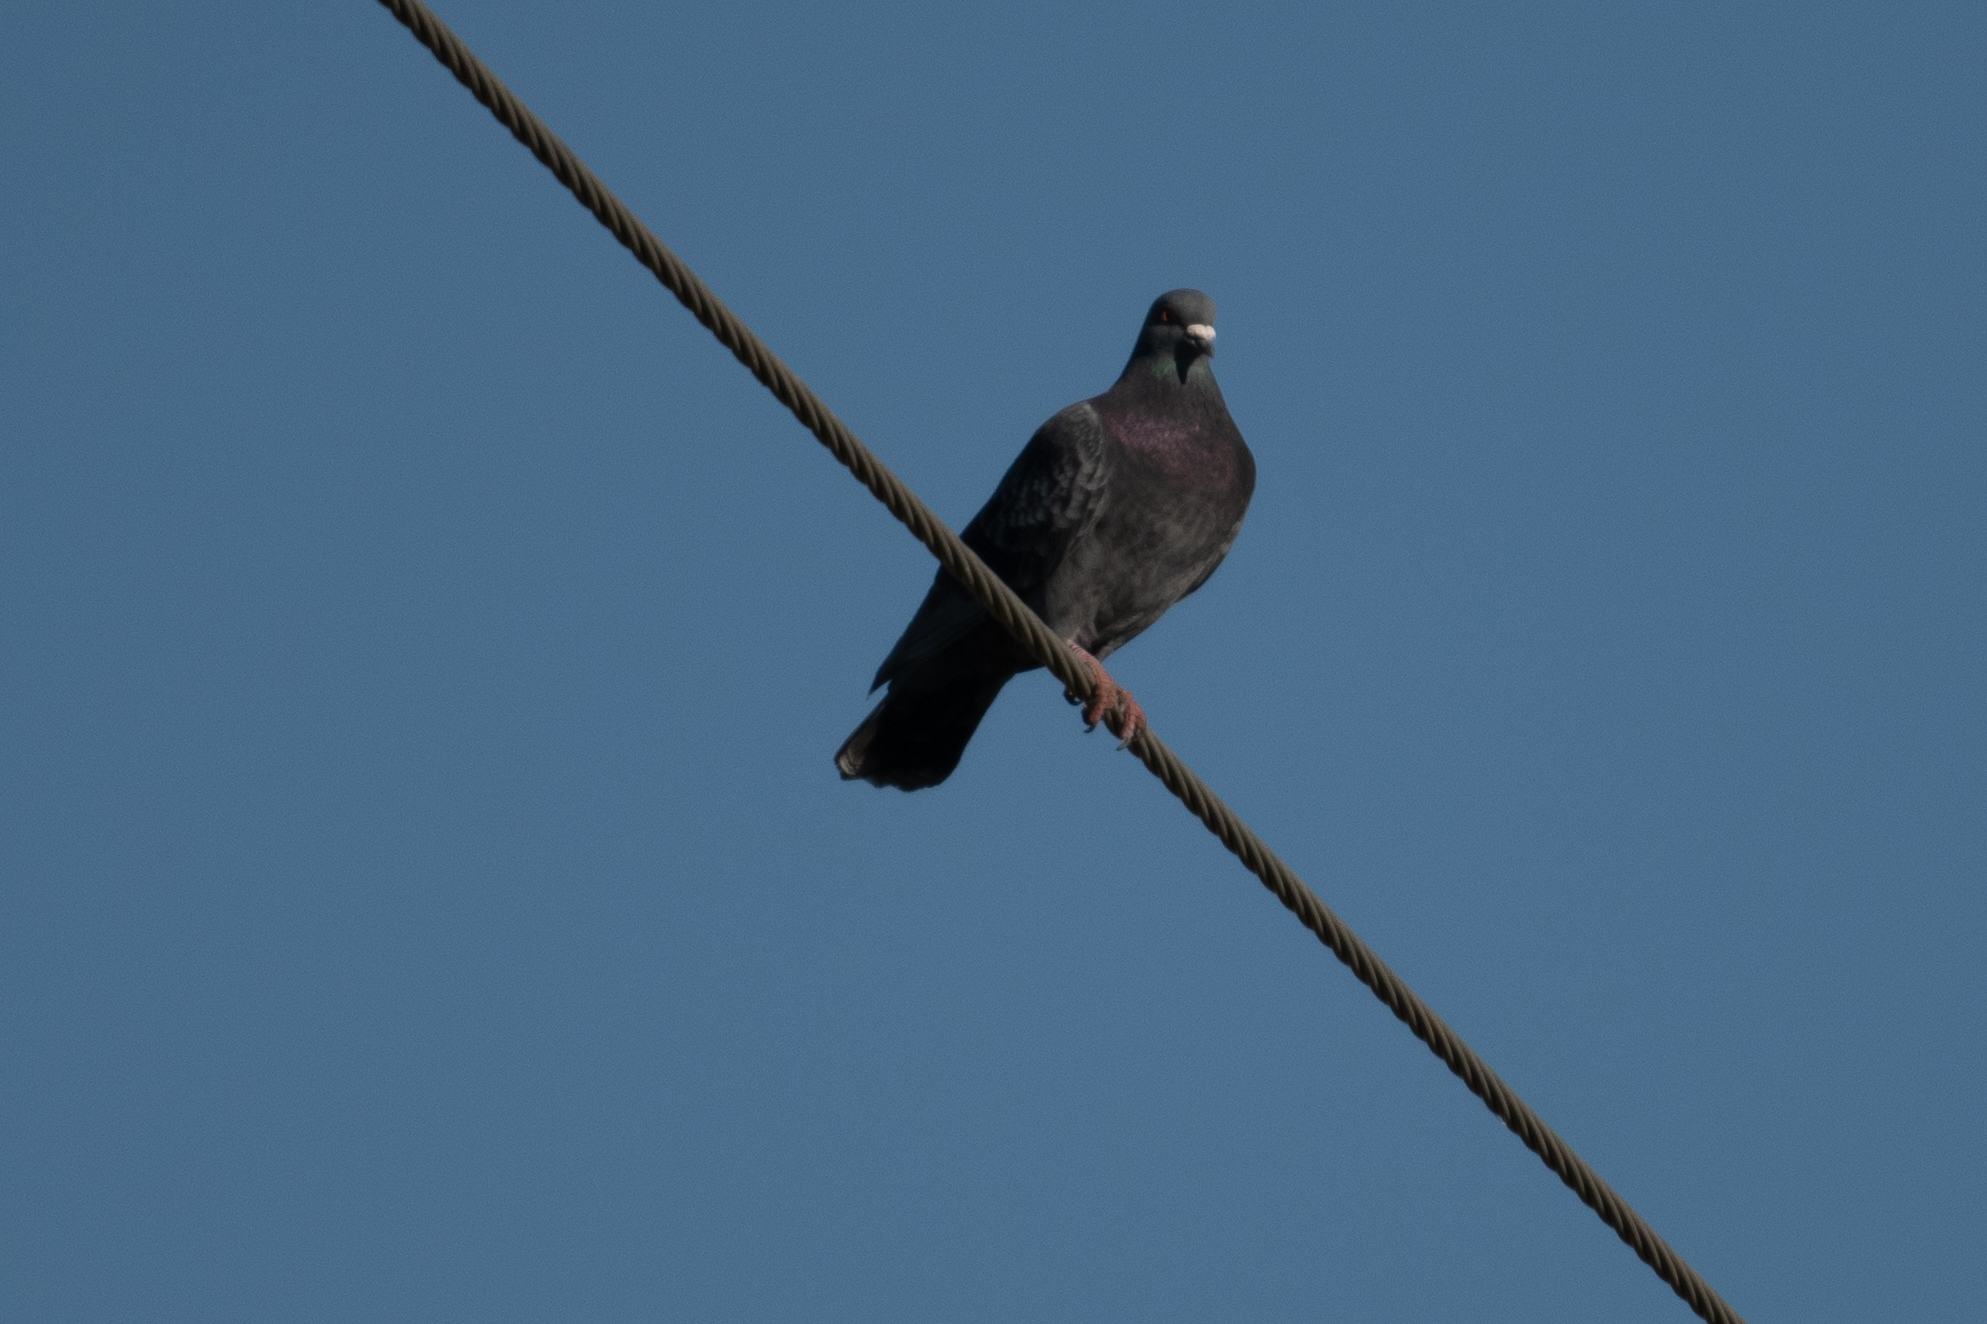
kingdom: Animalia
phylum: Chordata
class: Aves
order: Columbiformes
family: Columbidae
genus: Columba
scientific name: Columba livia
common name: Rock pigeon
